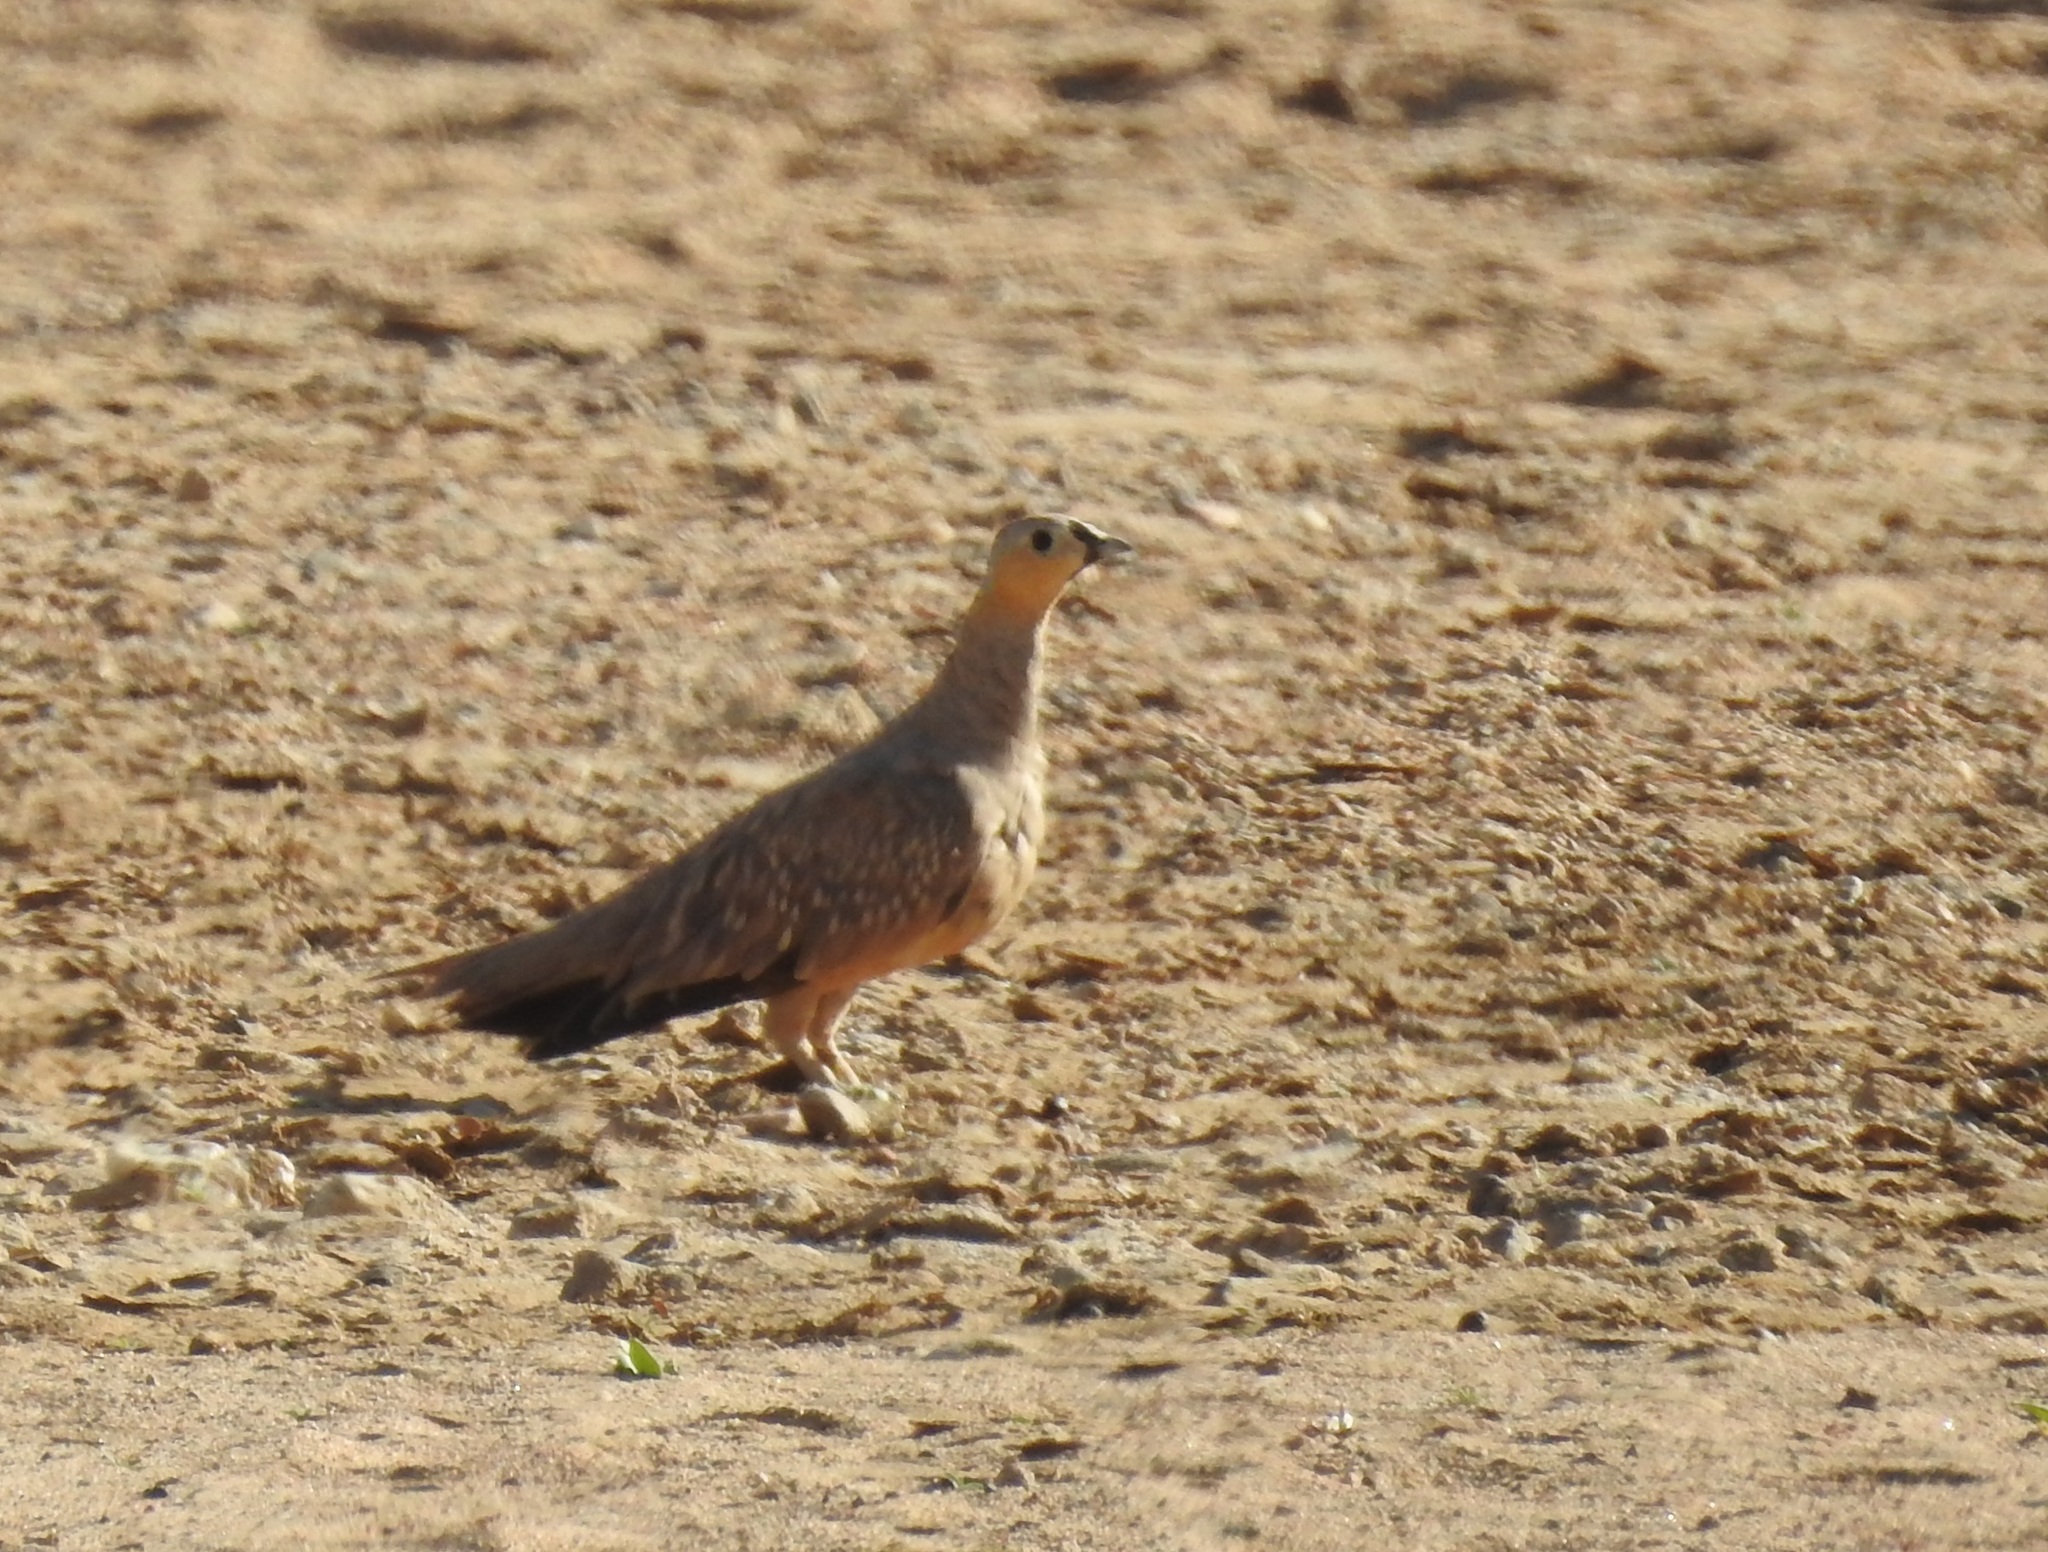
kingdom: Animalia
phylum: Chordata
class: Aves
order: Pteroclidiformes
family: Pteroclididae
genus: Pterocles
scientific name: Pterocles coronatus
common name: Crowned sandgrouse
